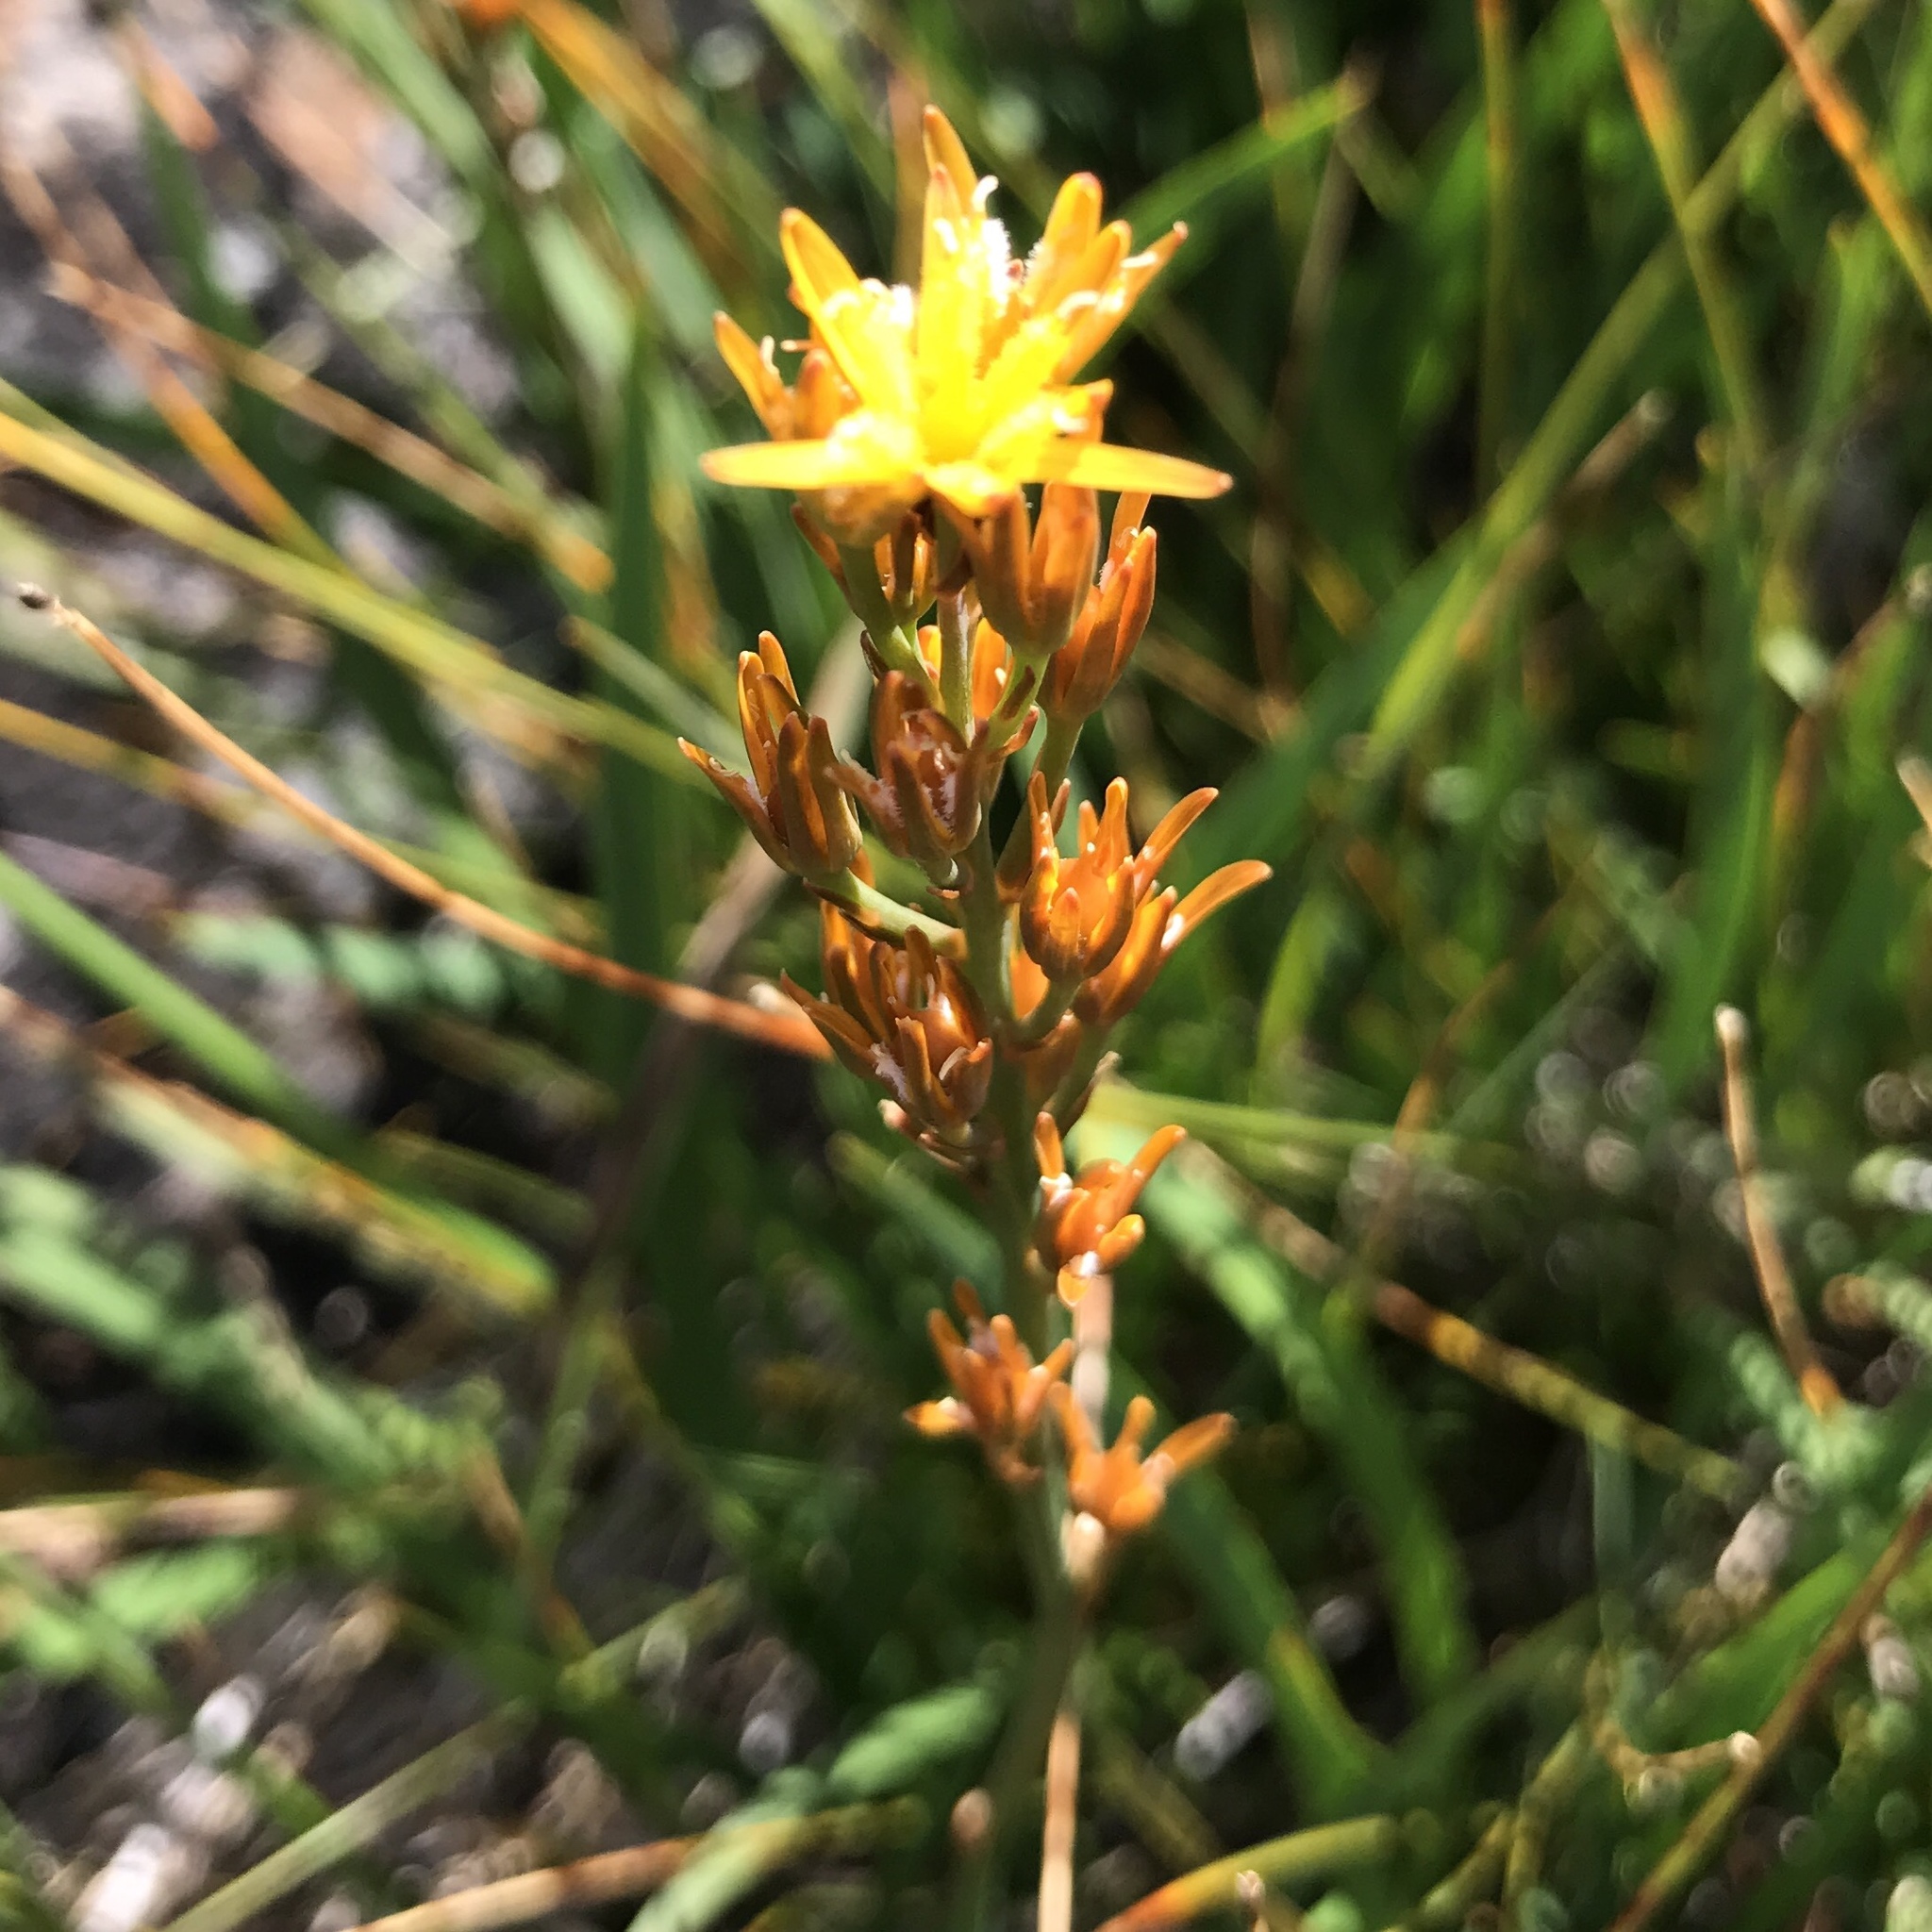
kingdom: Plantae
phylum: Tracheophyta
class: Liliopsida
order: Dioscoreales
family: Nartheciaceae
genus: Narthecium
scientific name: Narthecium ossifragum
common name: Bog asphodel
